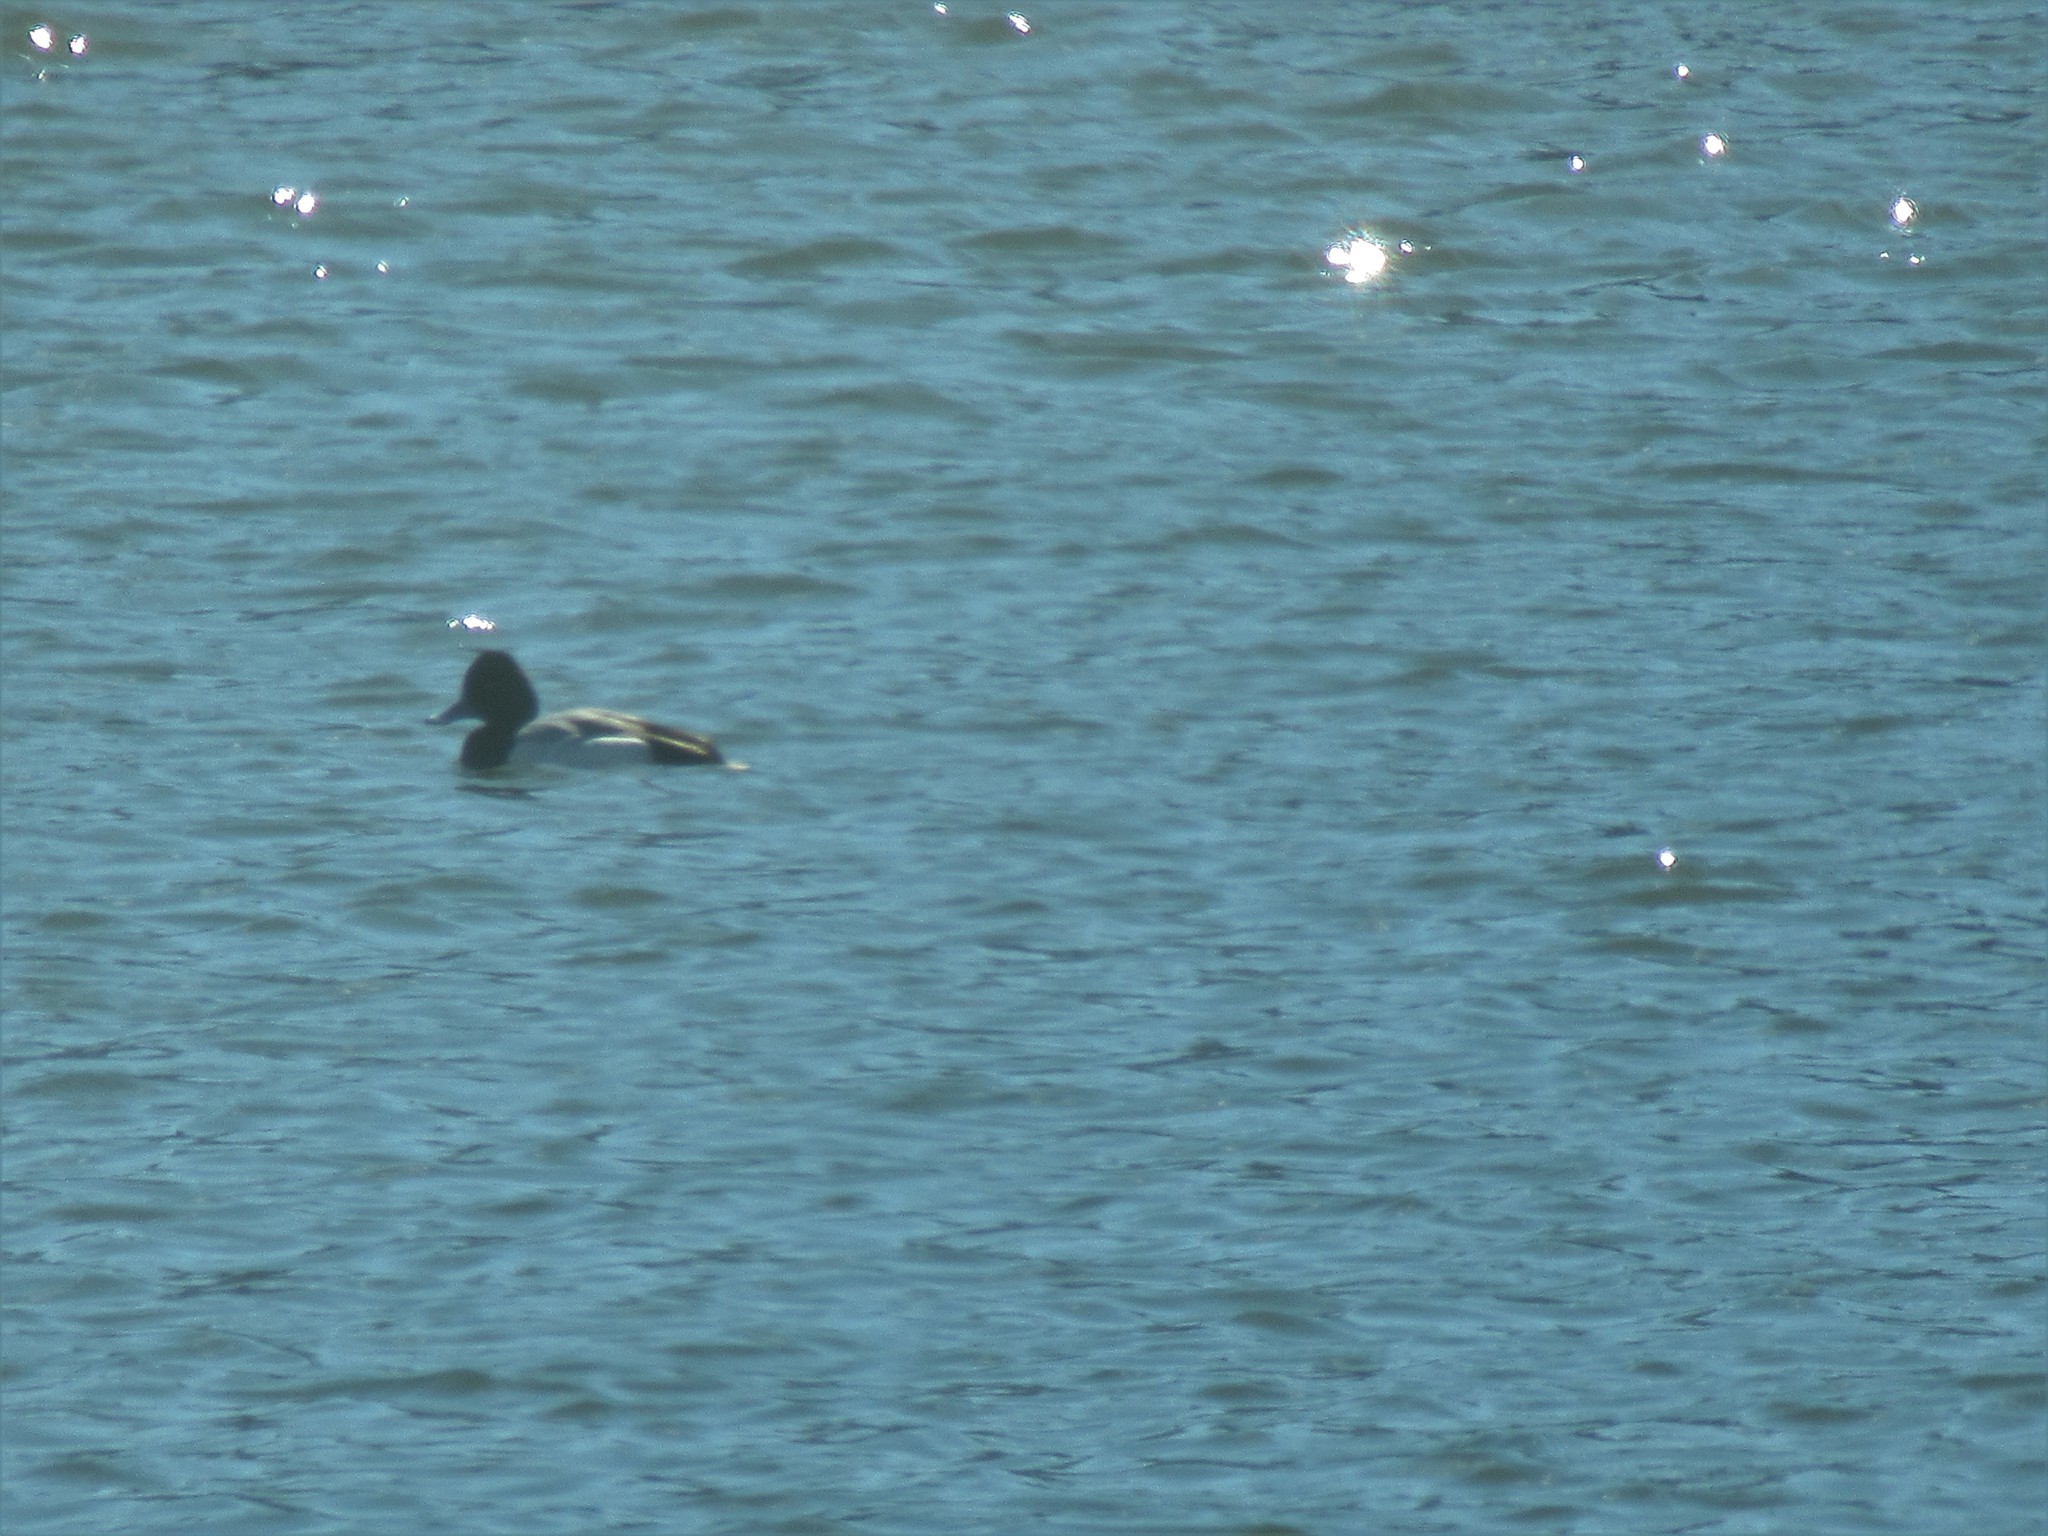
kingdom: Animalia
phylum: Chordata
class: Aves
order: Anseriformes
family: Anatidae
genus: Aythya
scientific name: Aythya affinis
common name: Lesser scaup
